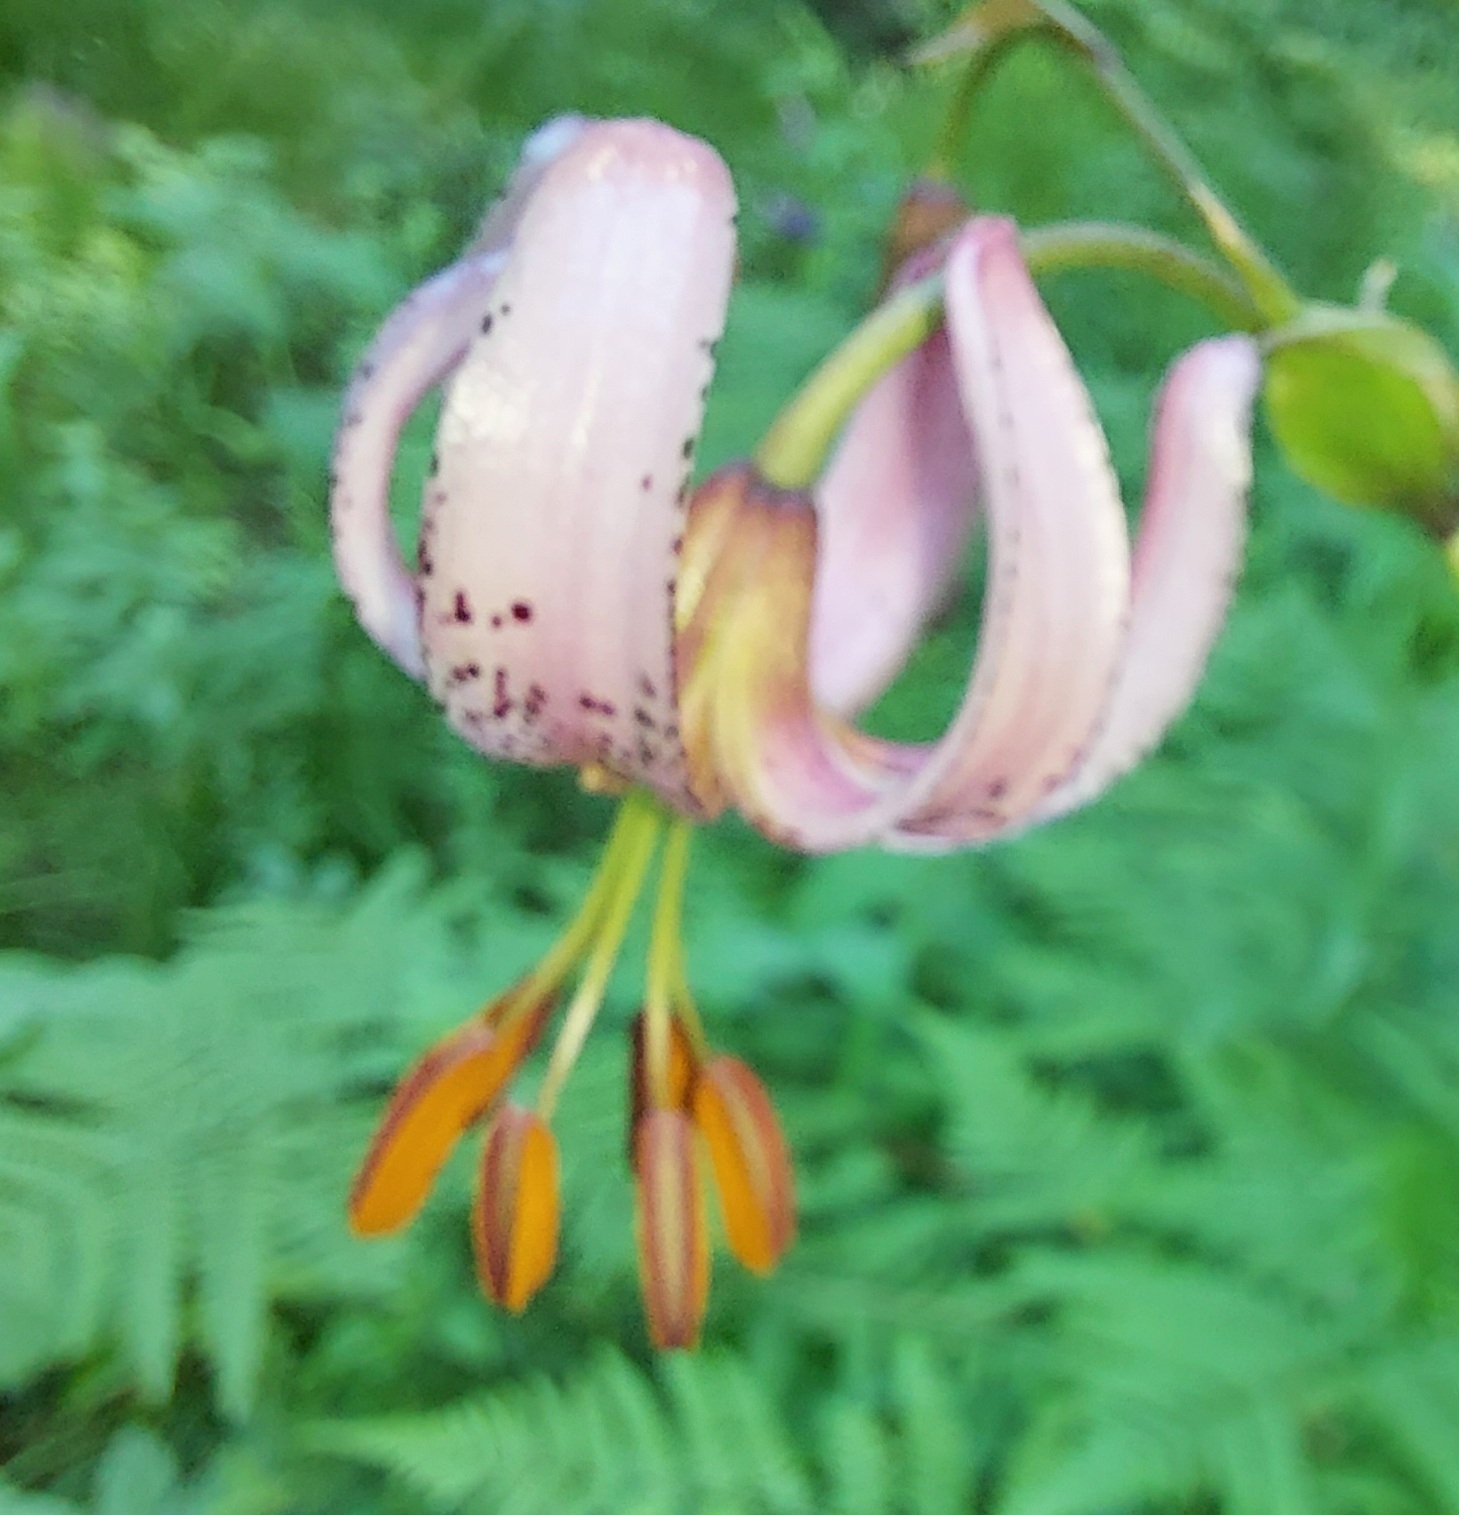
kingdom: Plantae
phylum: Tracheophyta
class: Liliopsida
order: Liliales
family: Liliaceae
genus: Lilium
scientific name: Lilium martagon
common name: Martagon lily
